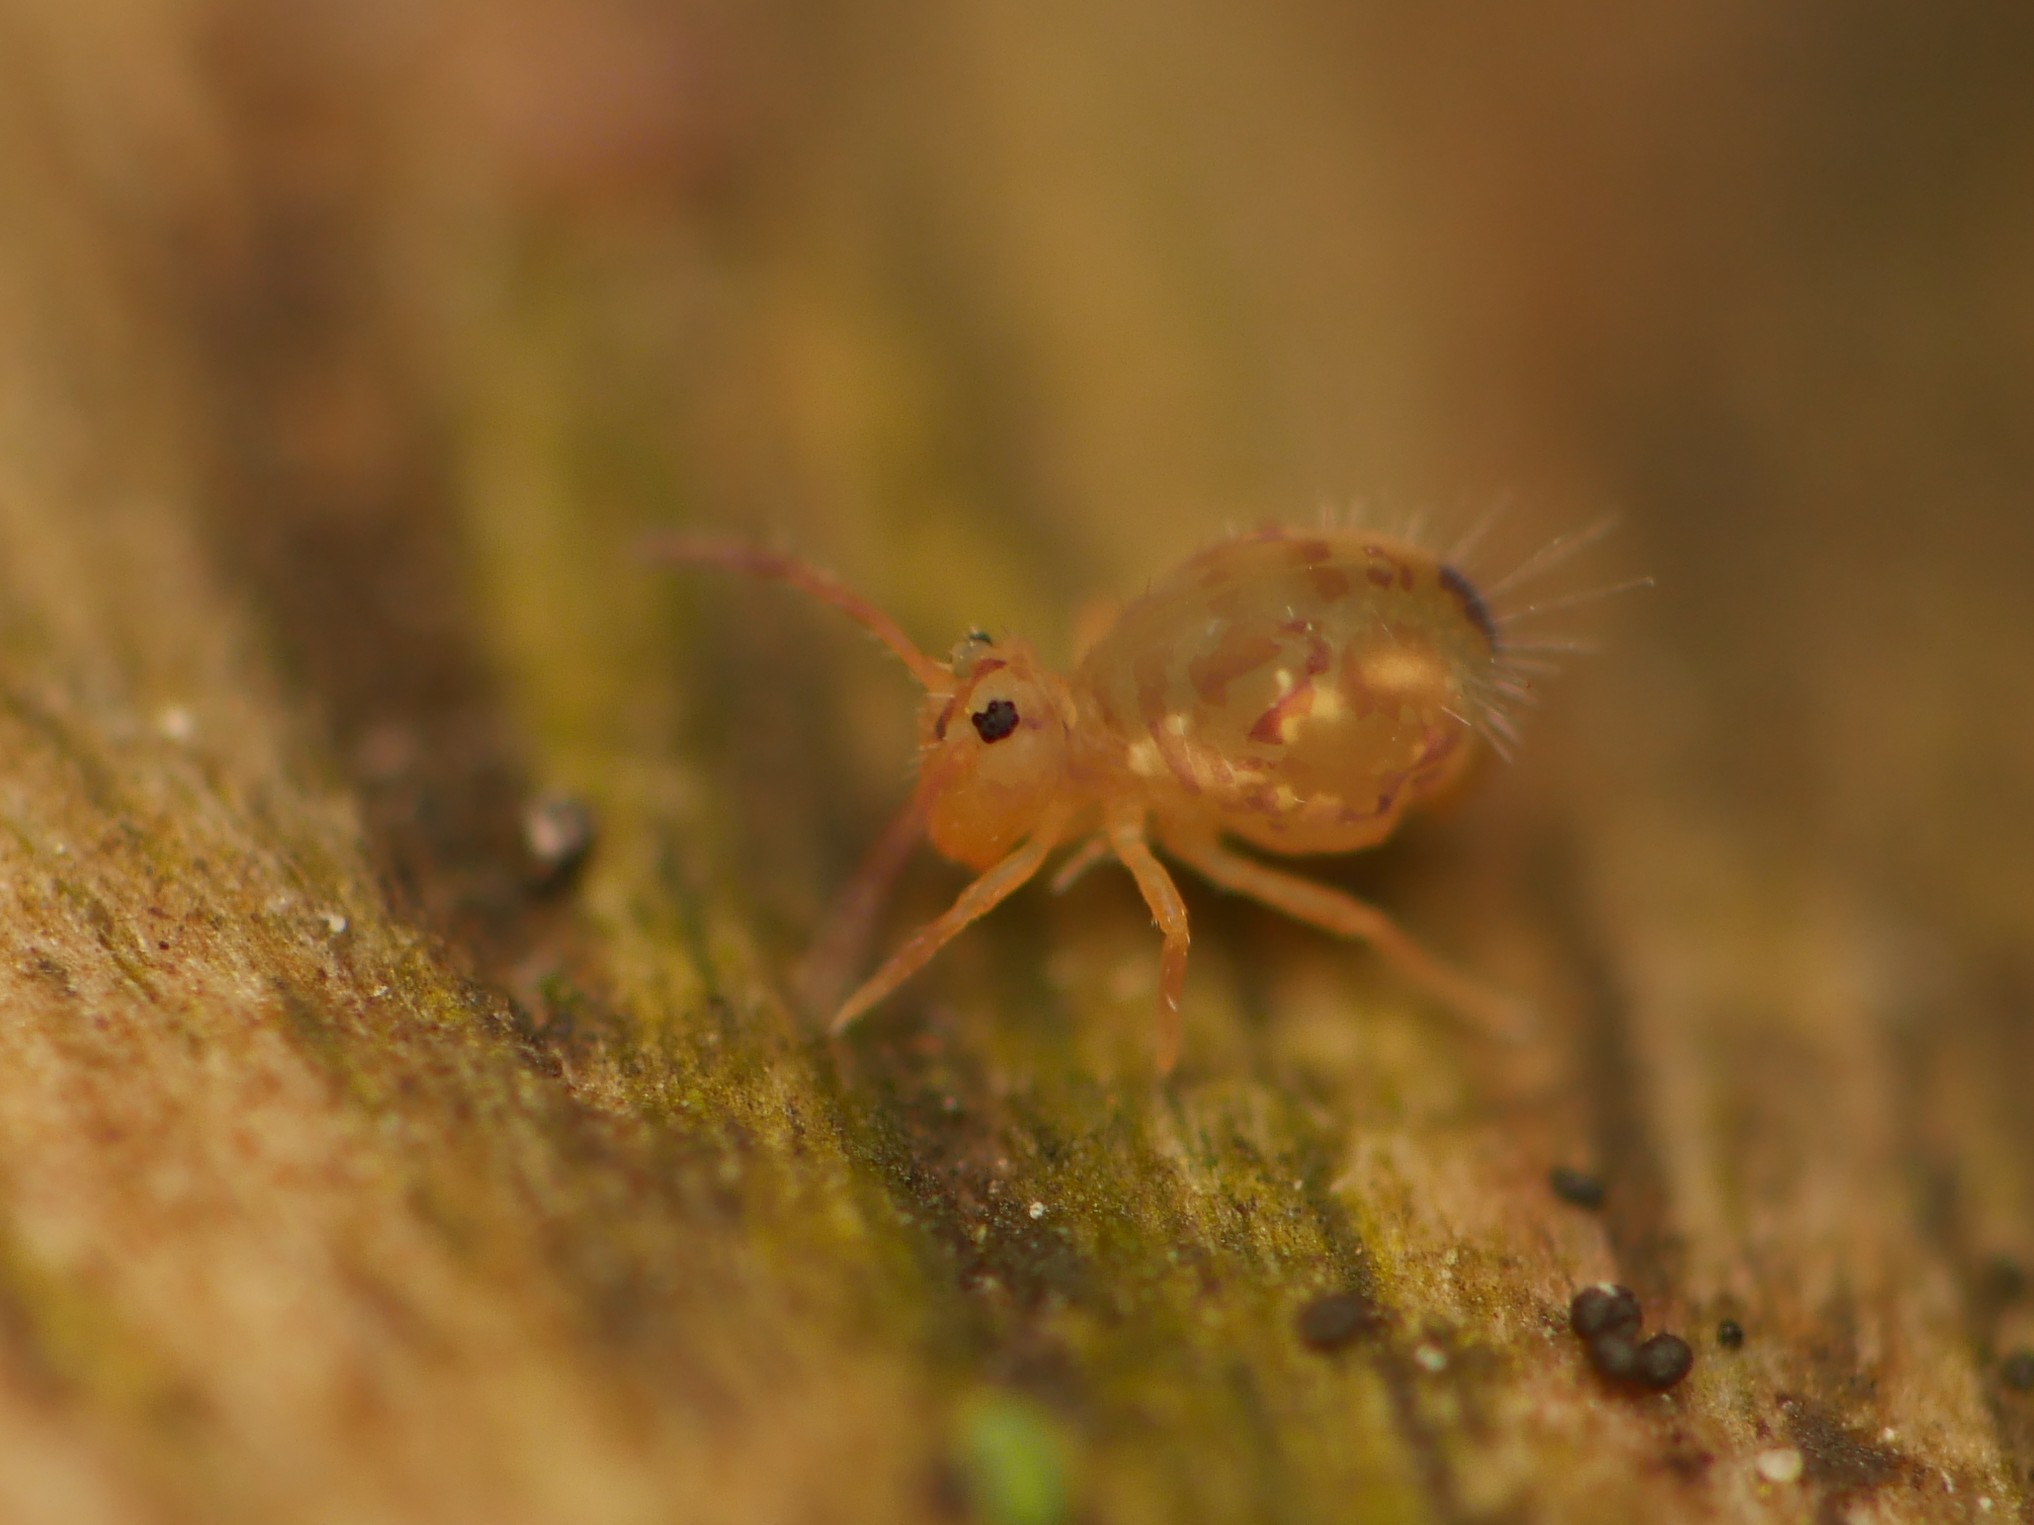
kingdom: Animalia
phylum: Arthropoda
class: Collembola
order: Symphypleona
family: Dicyrtomidae
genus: Dicyrtomina
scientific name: Dicyrtomina ornata
